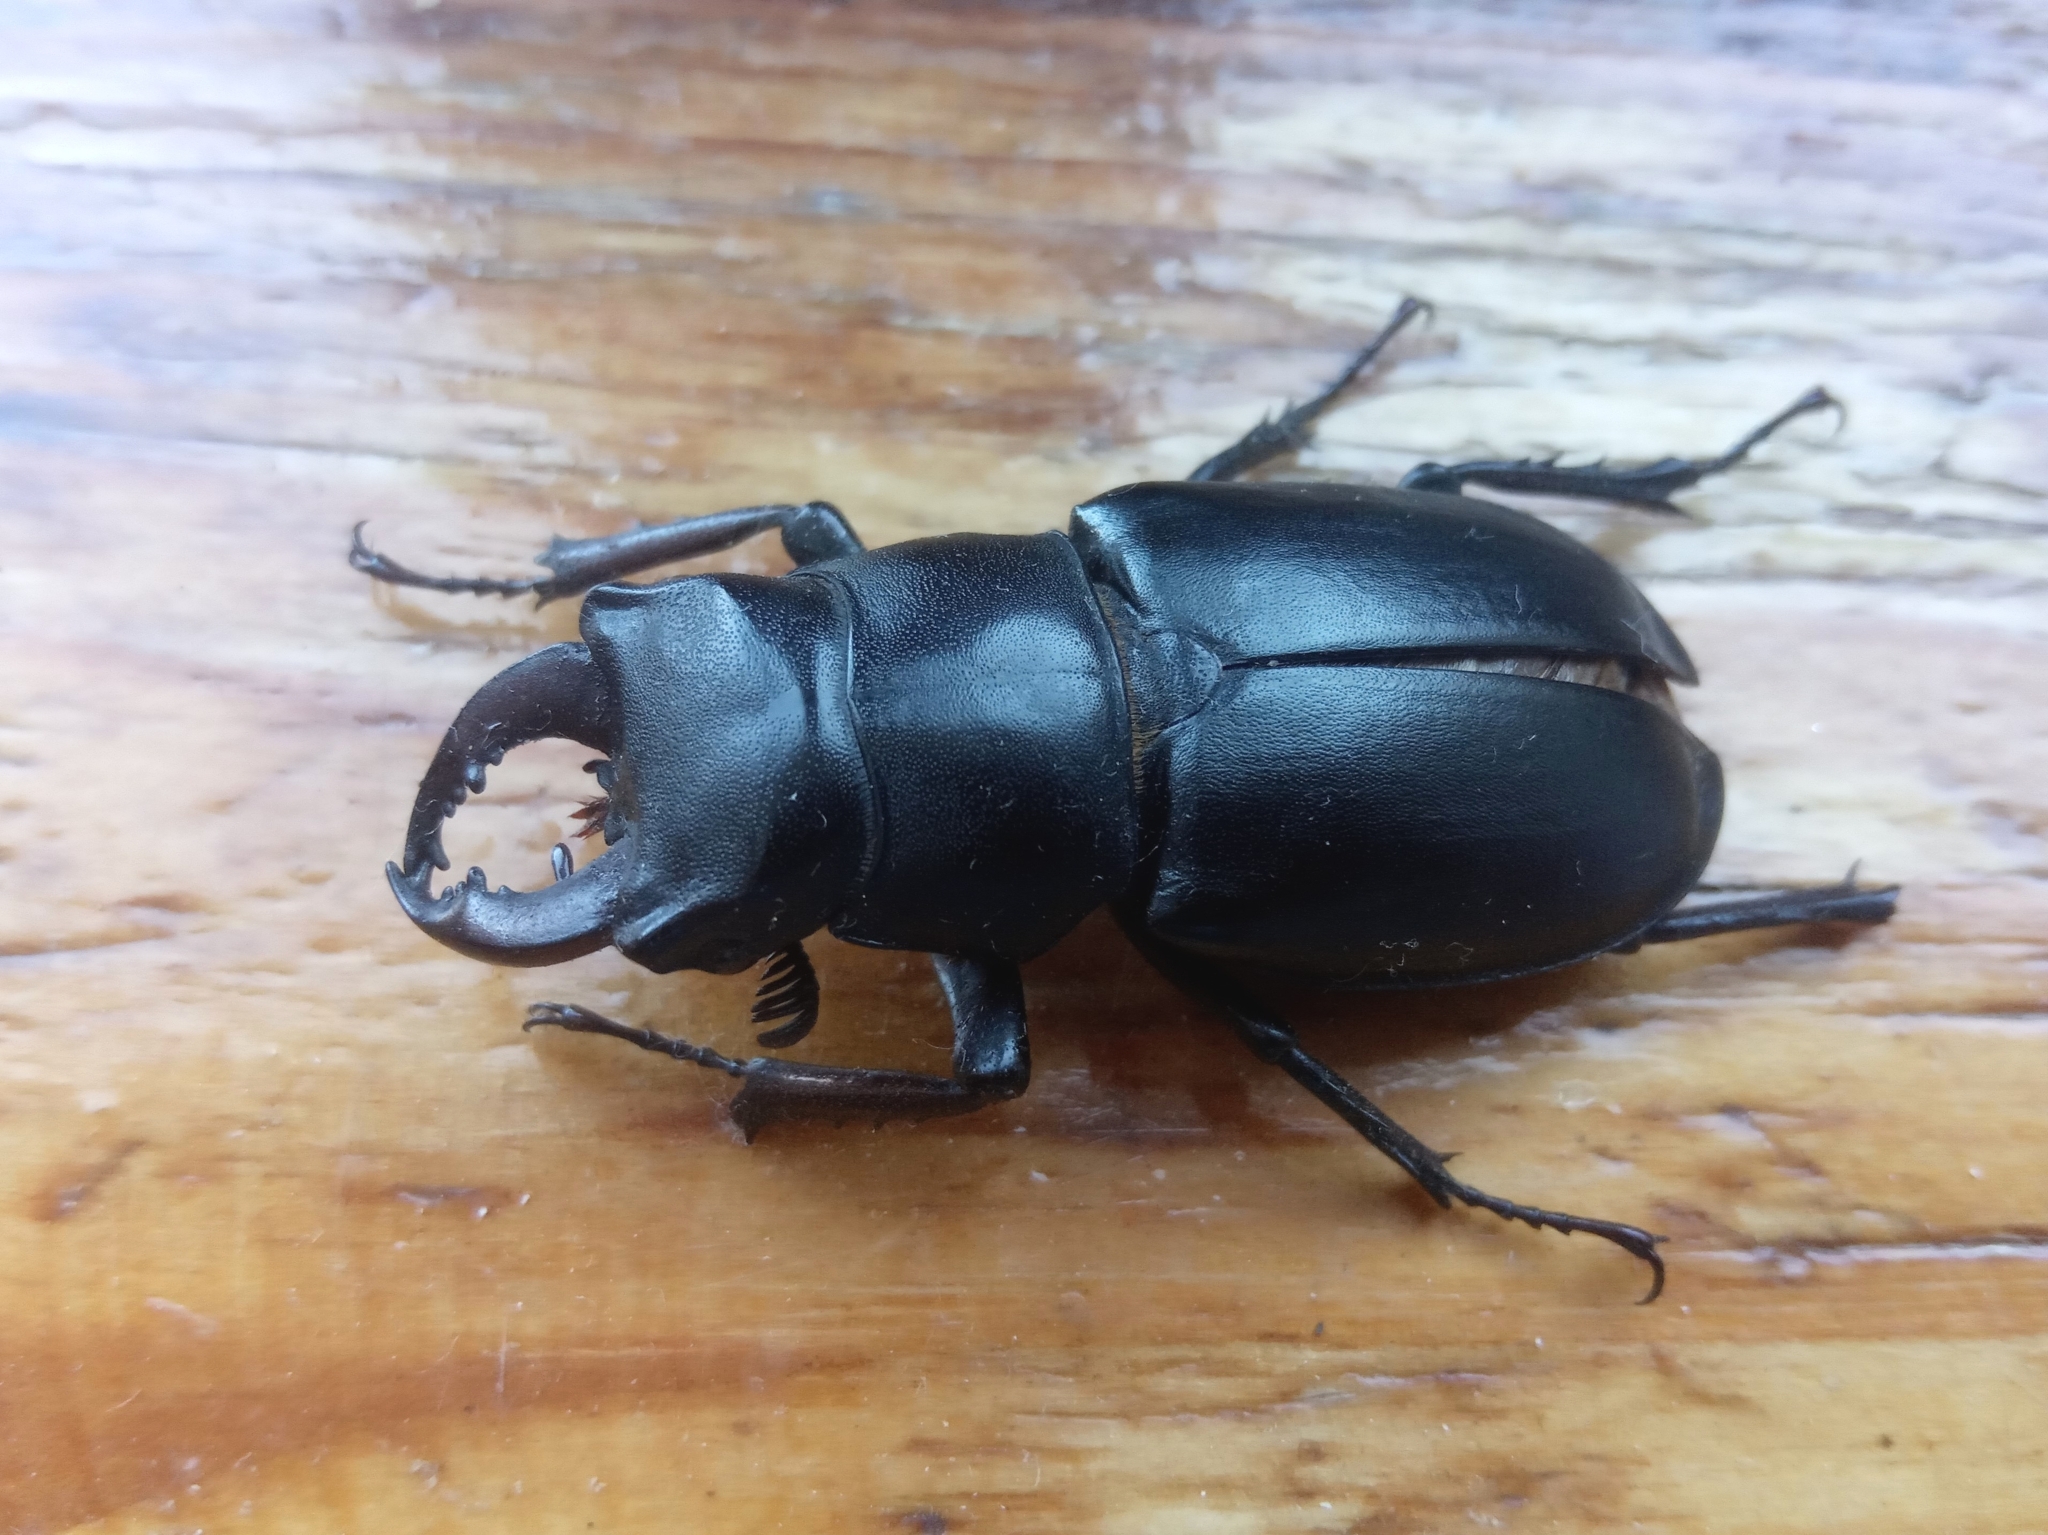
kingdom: Animalia
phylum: Arthropoda
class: Insecta
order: Coleoptera
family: Lucanidae
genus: Lucanus
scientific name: Lucanus ibericus
